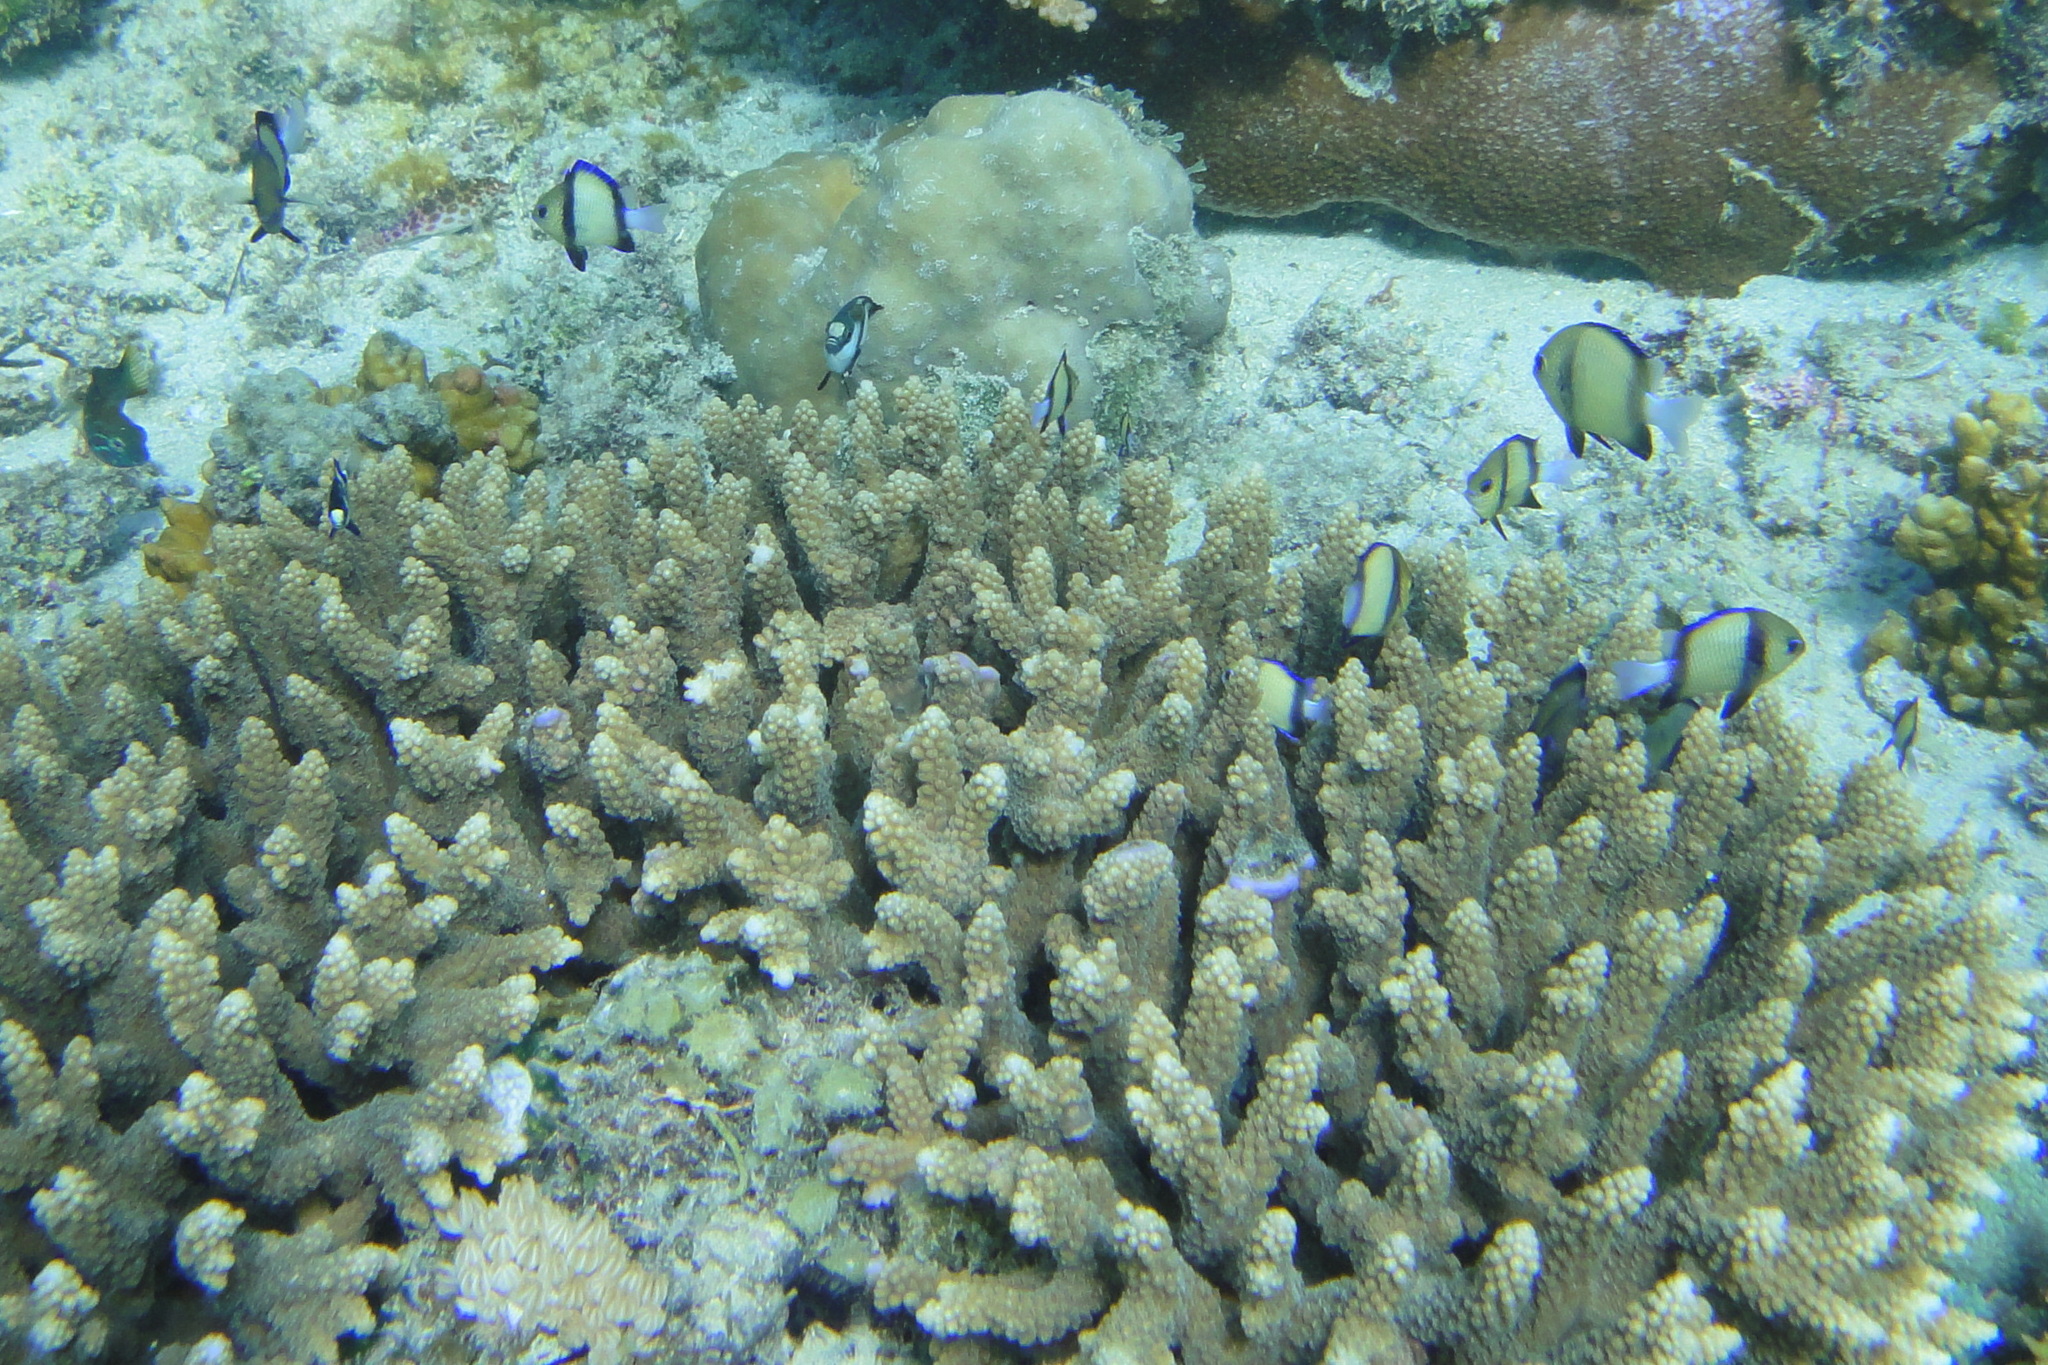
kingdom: Animalia
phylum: Chordata
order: Perciformes
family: Pomacentridae
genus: Dascyllus
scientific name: Dascyllus carneus
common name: Indian dascyllus
